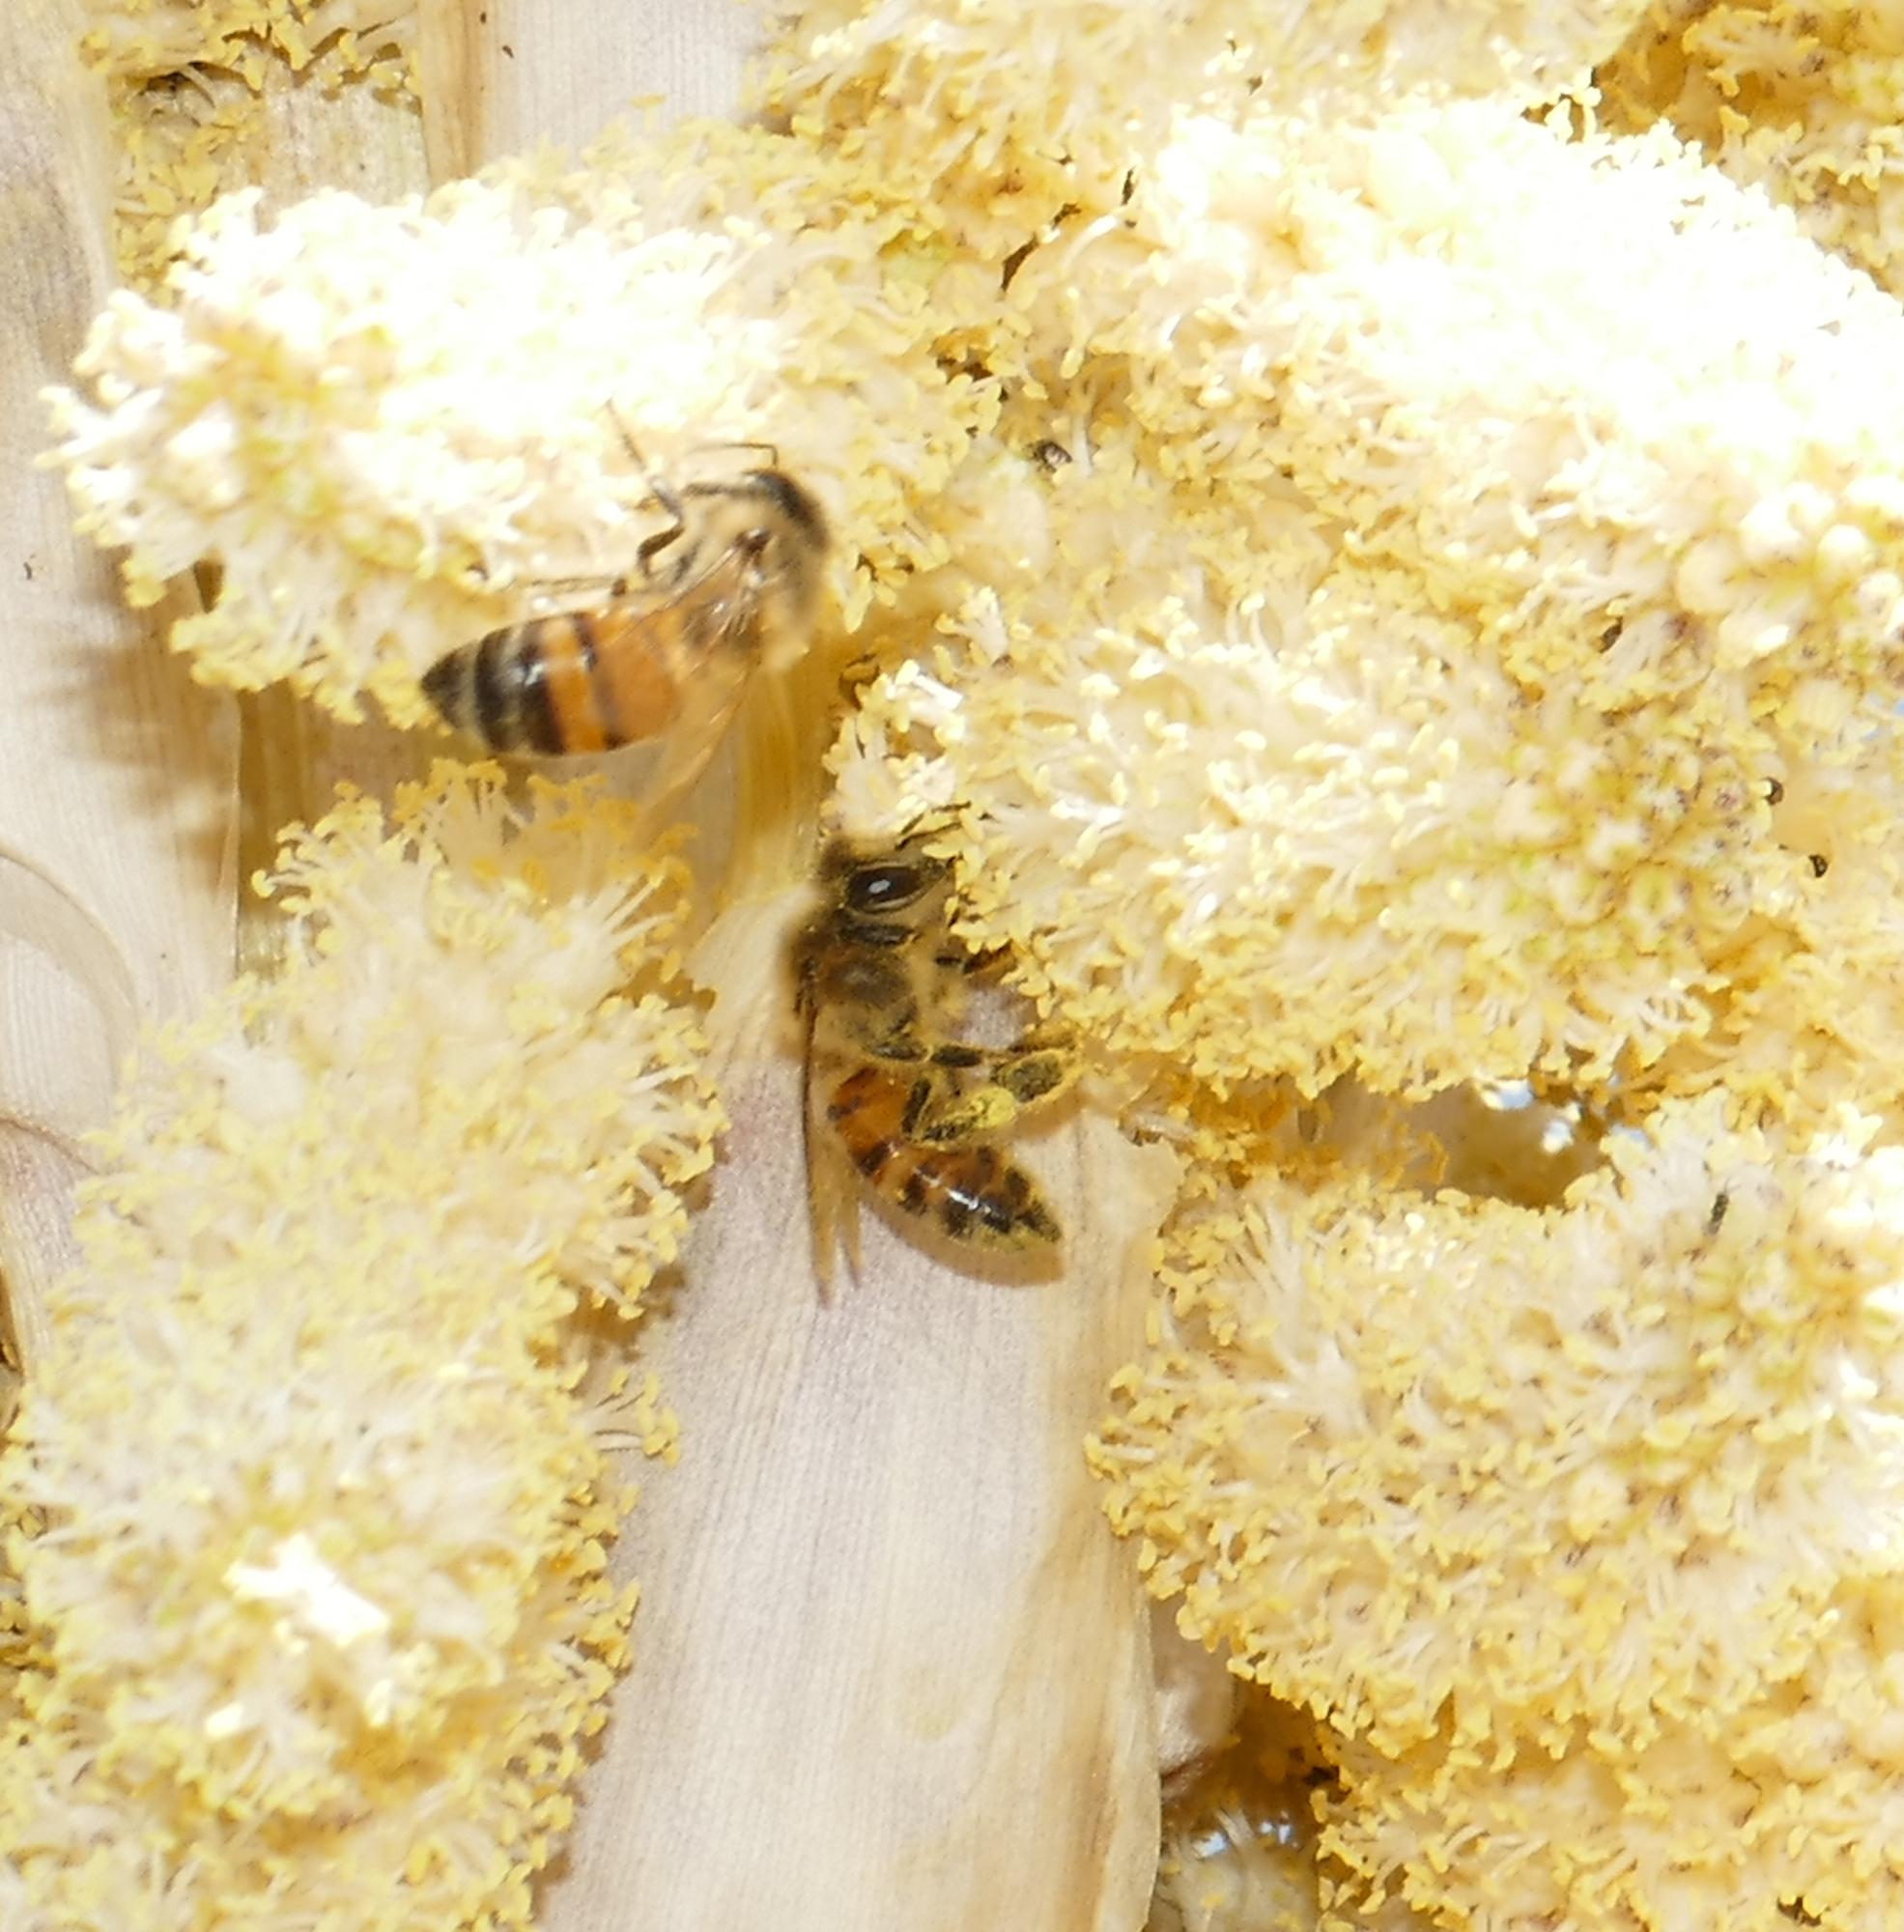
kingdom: Animalia
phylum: Arthropoda
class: Insecta
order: Hymenoptera
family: Apidae
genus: Apis
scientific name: Apis mellifera
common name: Honey bee
